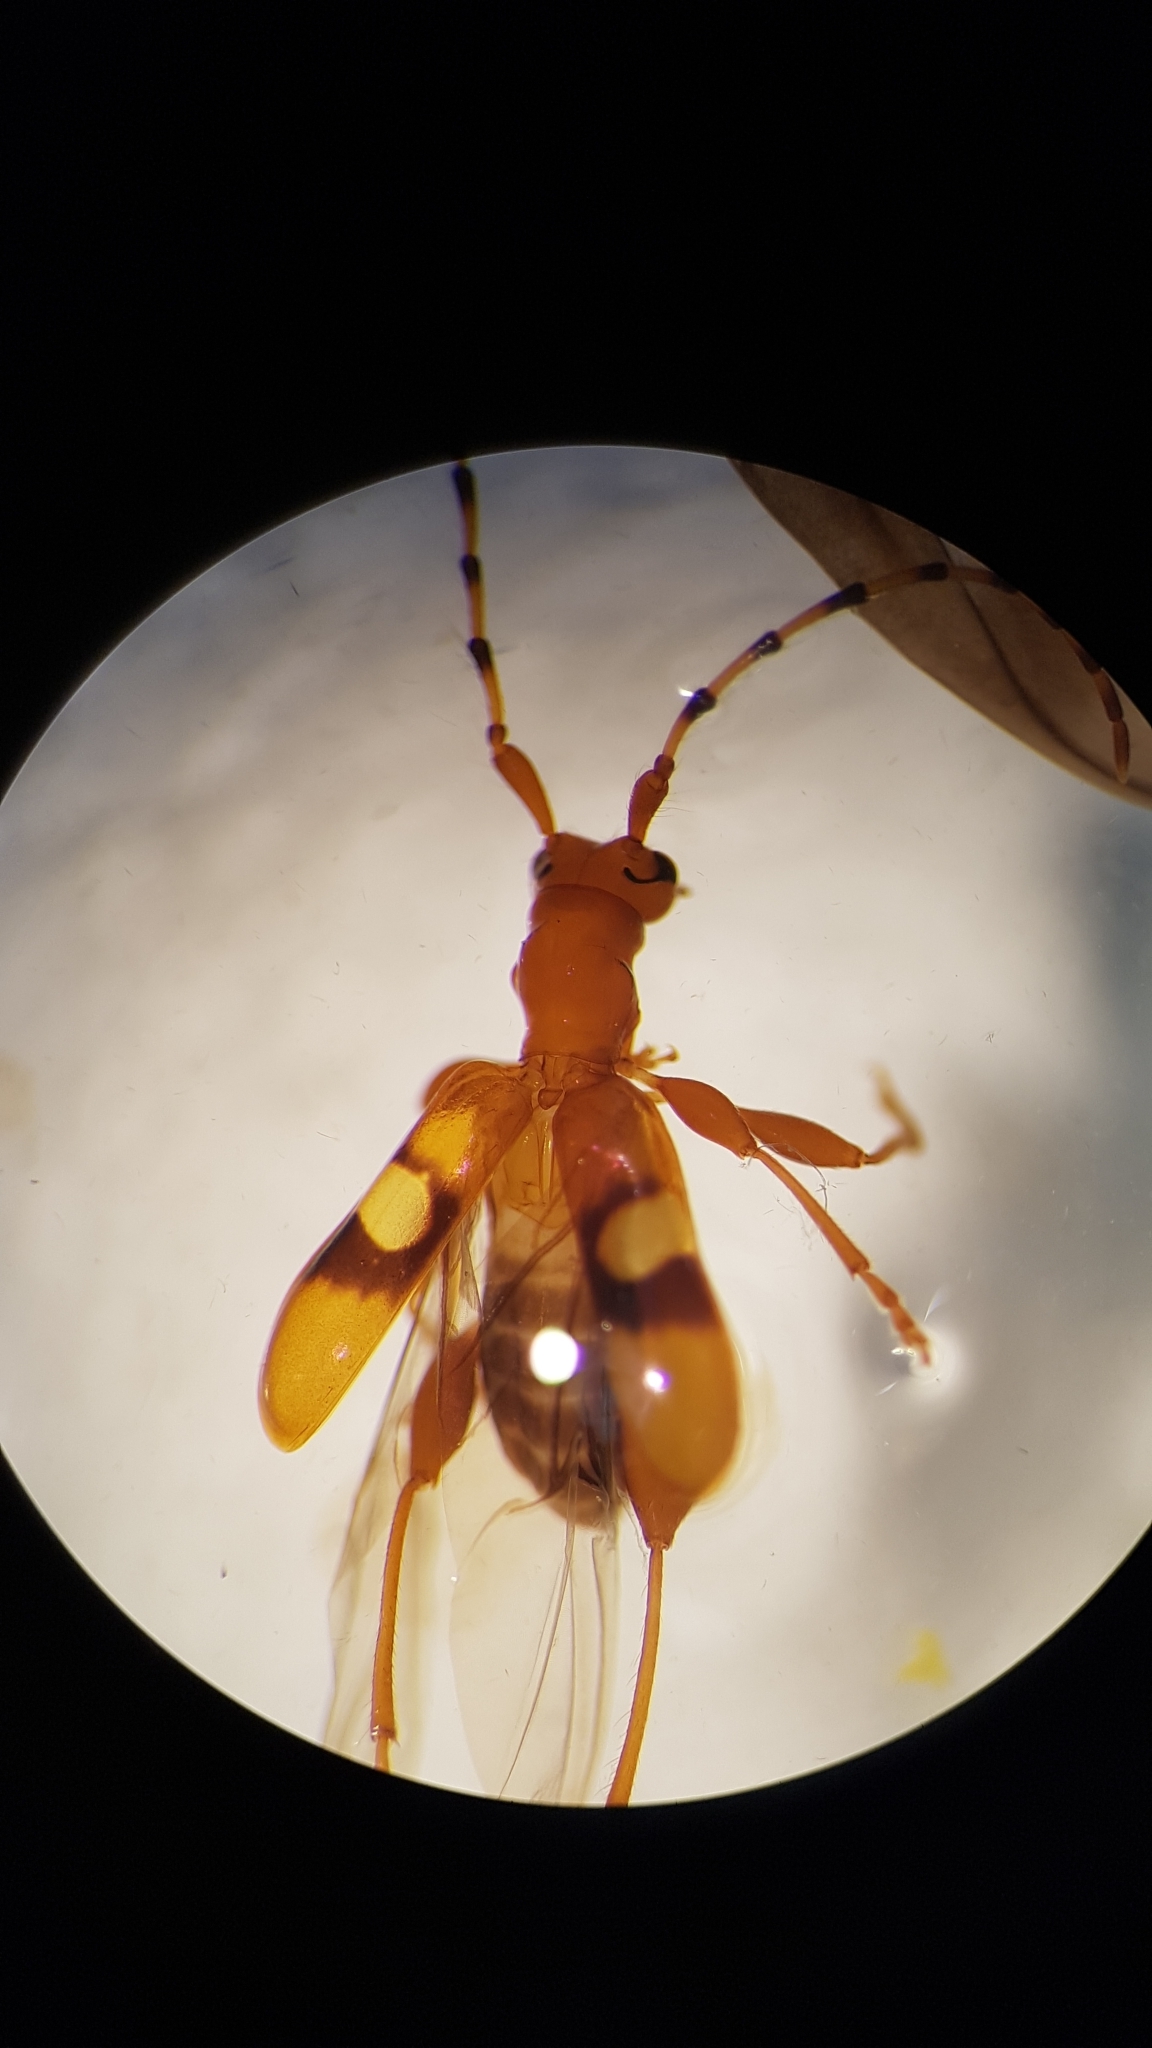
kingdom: Animalia
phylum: Arthropoda
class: Insecta
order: Coleoptera
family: Cerambycidae
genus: Zorion
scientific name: Zorion australe
